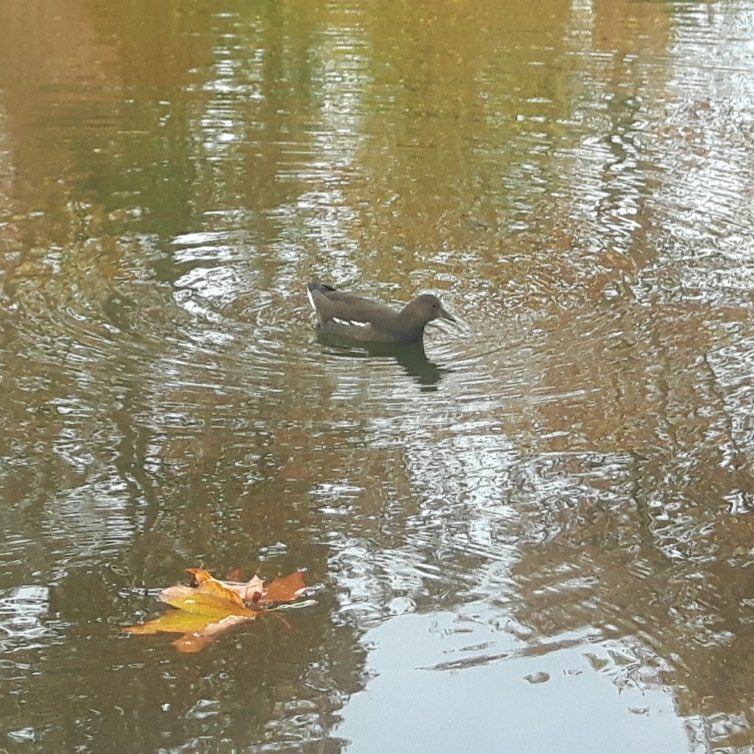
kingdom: Animalia
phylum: Chordata
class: Aves
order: Gruiformes
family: Rallidae
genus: Gallinula
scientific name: Gallinula chloropus
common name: Common moorhen
